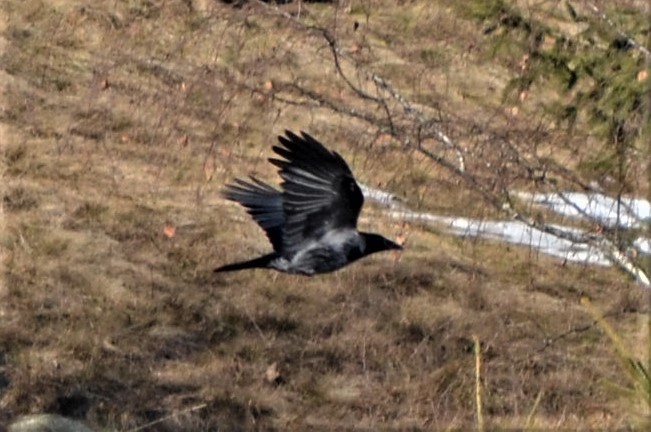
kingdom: Animalia
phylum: Chordata
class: Aves
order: Passeriformes
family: Corvidae
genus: Corvus
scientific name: Corvus
